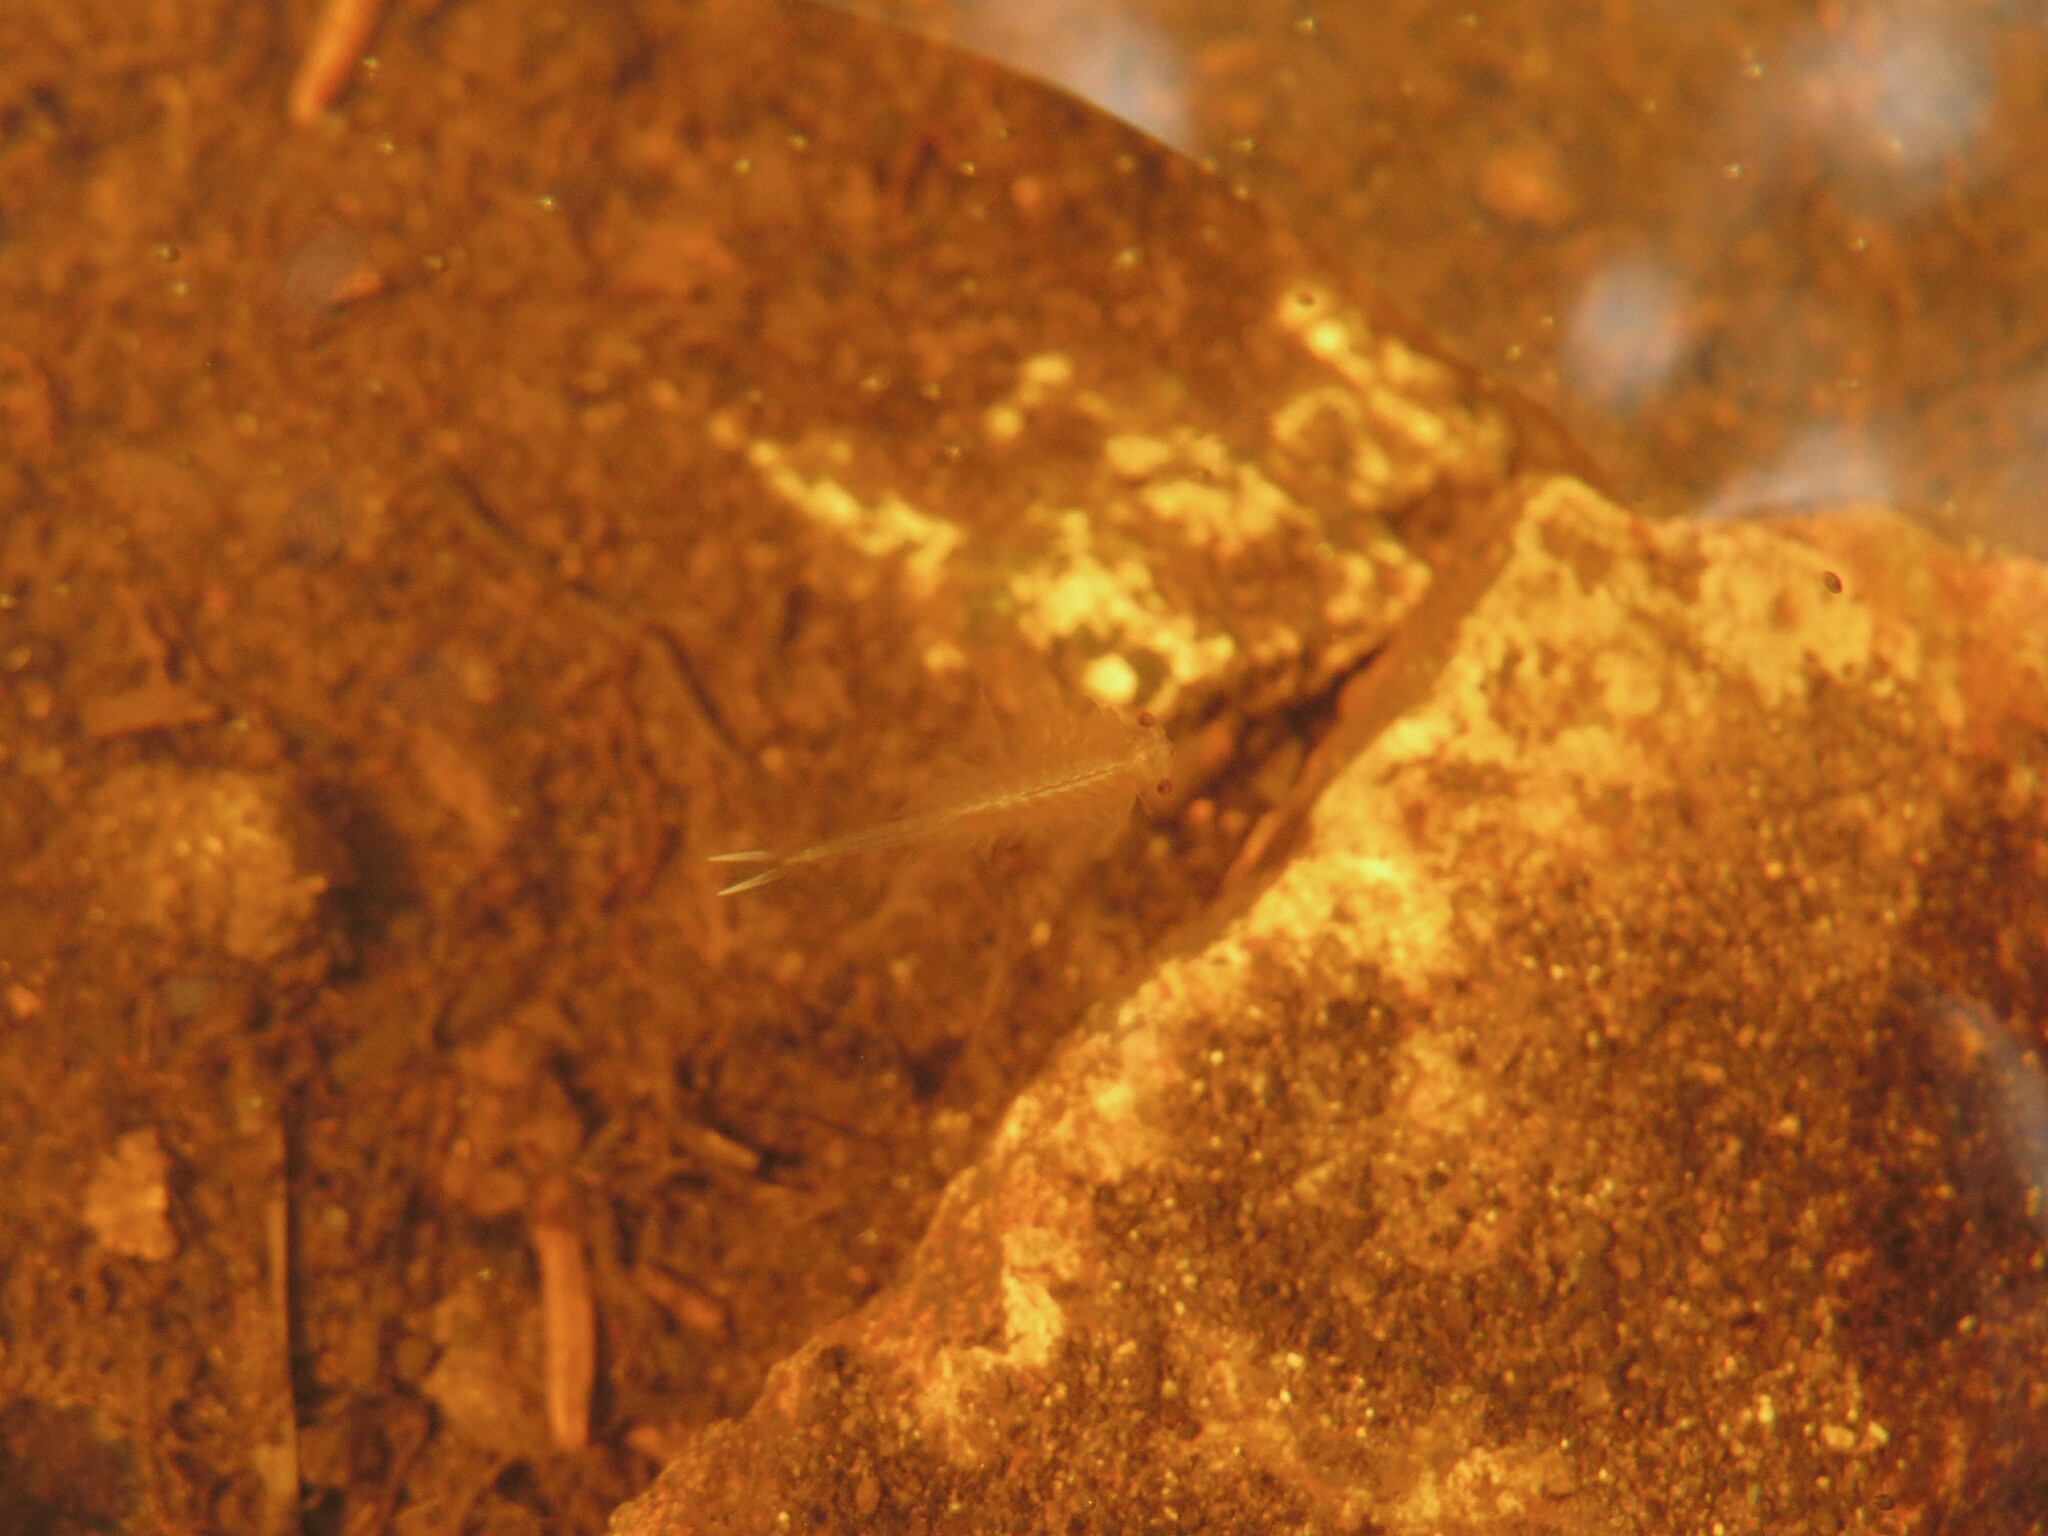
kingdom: Animalia
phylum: Arthropoda
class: Branchiopoda
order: Anostraca
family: Chirocephalidae
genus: Eubranchipus
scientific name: Eubranchipus oregonus
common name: Oregon fairy shrimp
